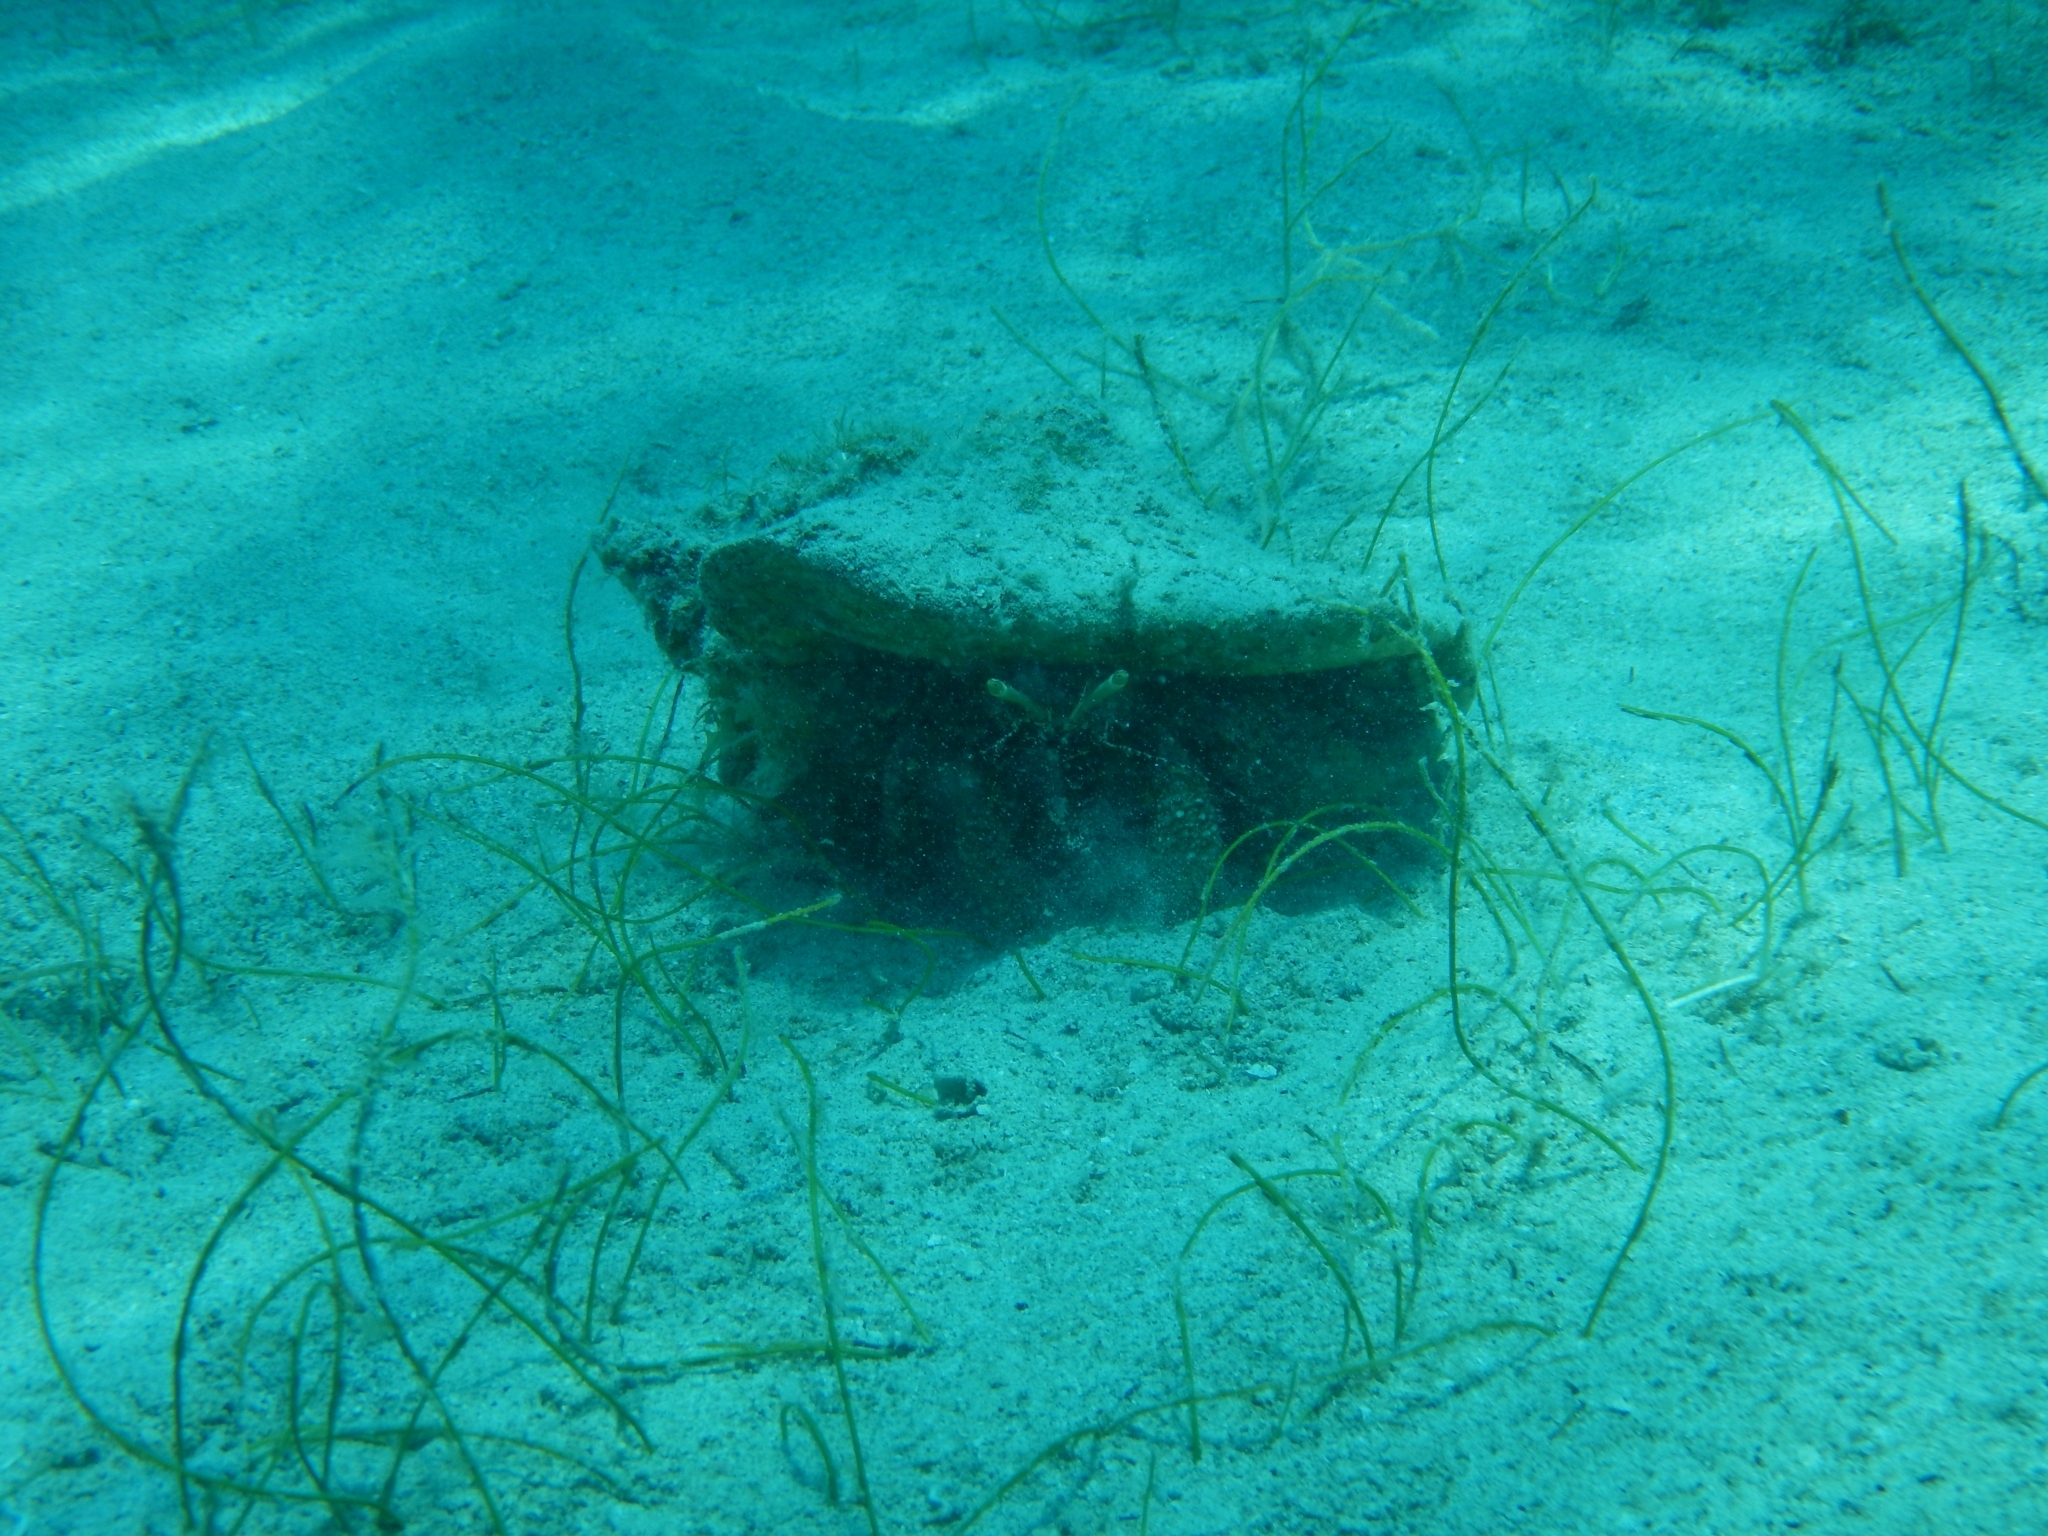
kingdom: Animalia
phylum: Arthropoda
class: Malacostraca
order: Decapoda
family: Diogenidae
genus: Petrochirus
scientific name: Petrochirus diogenes
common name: Giant hermit crab
